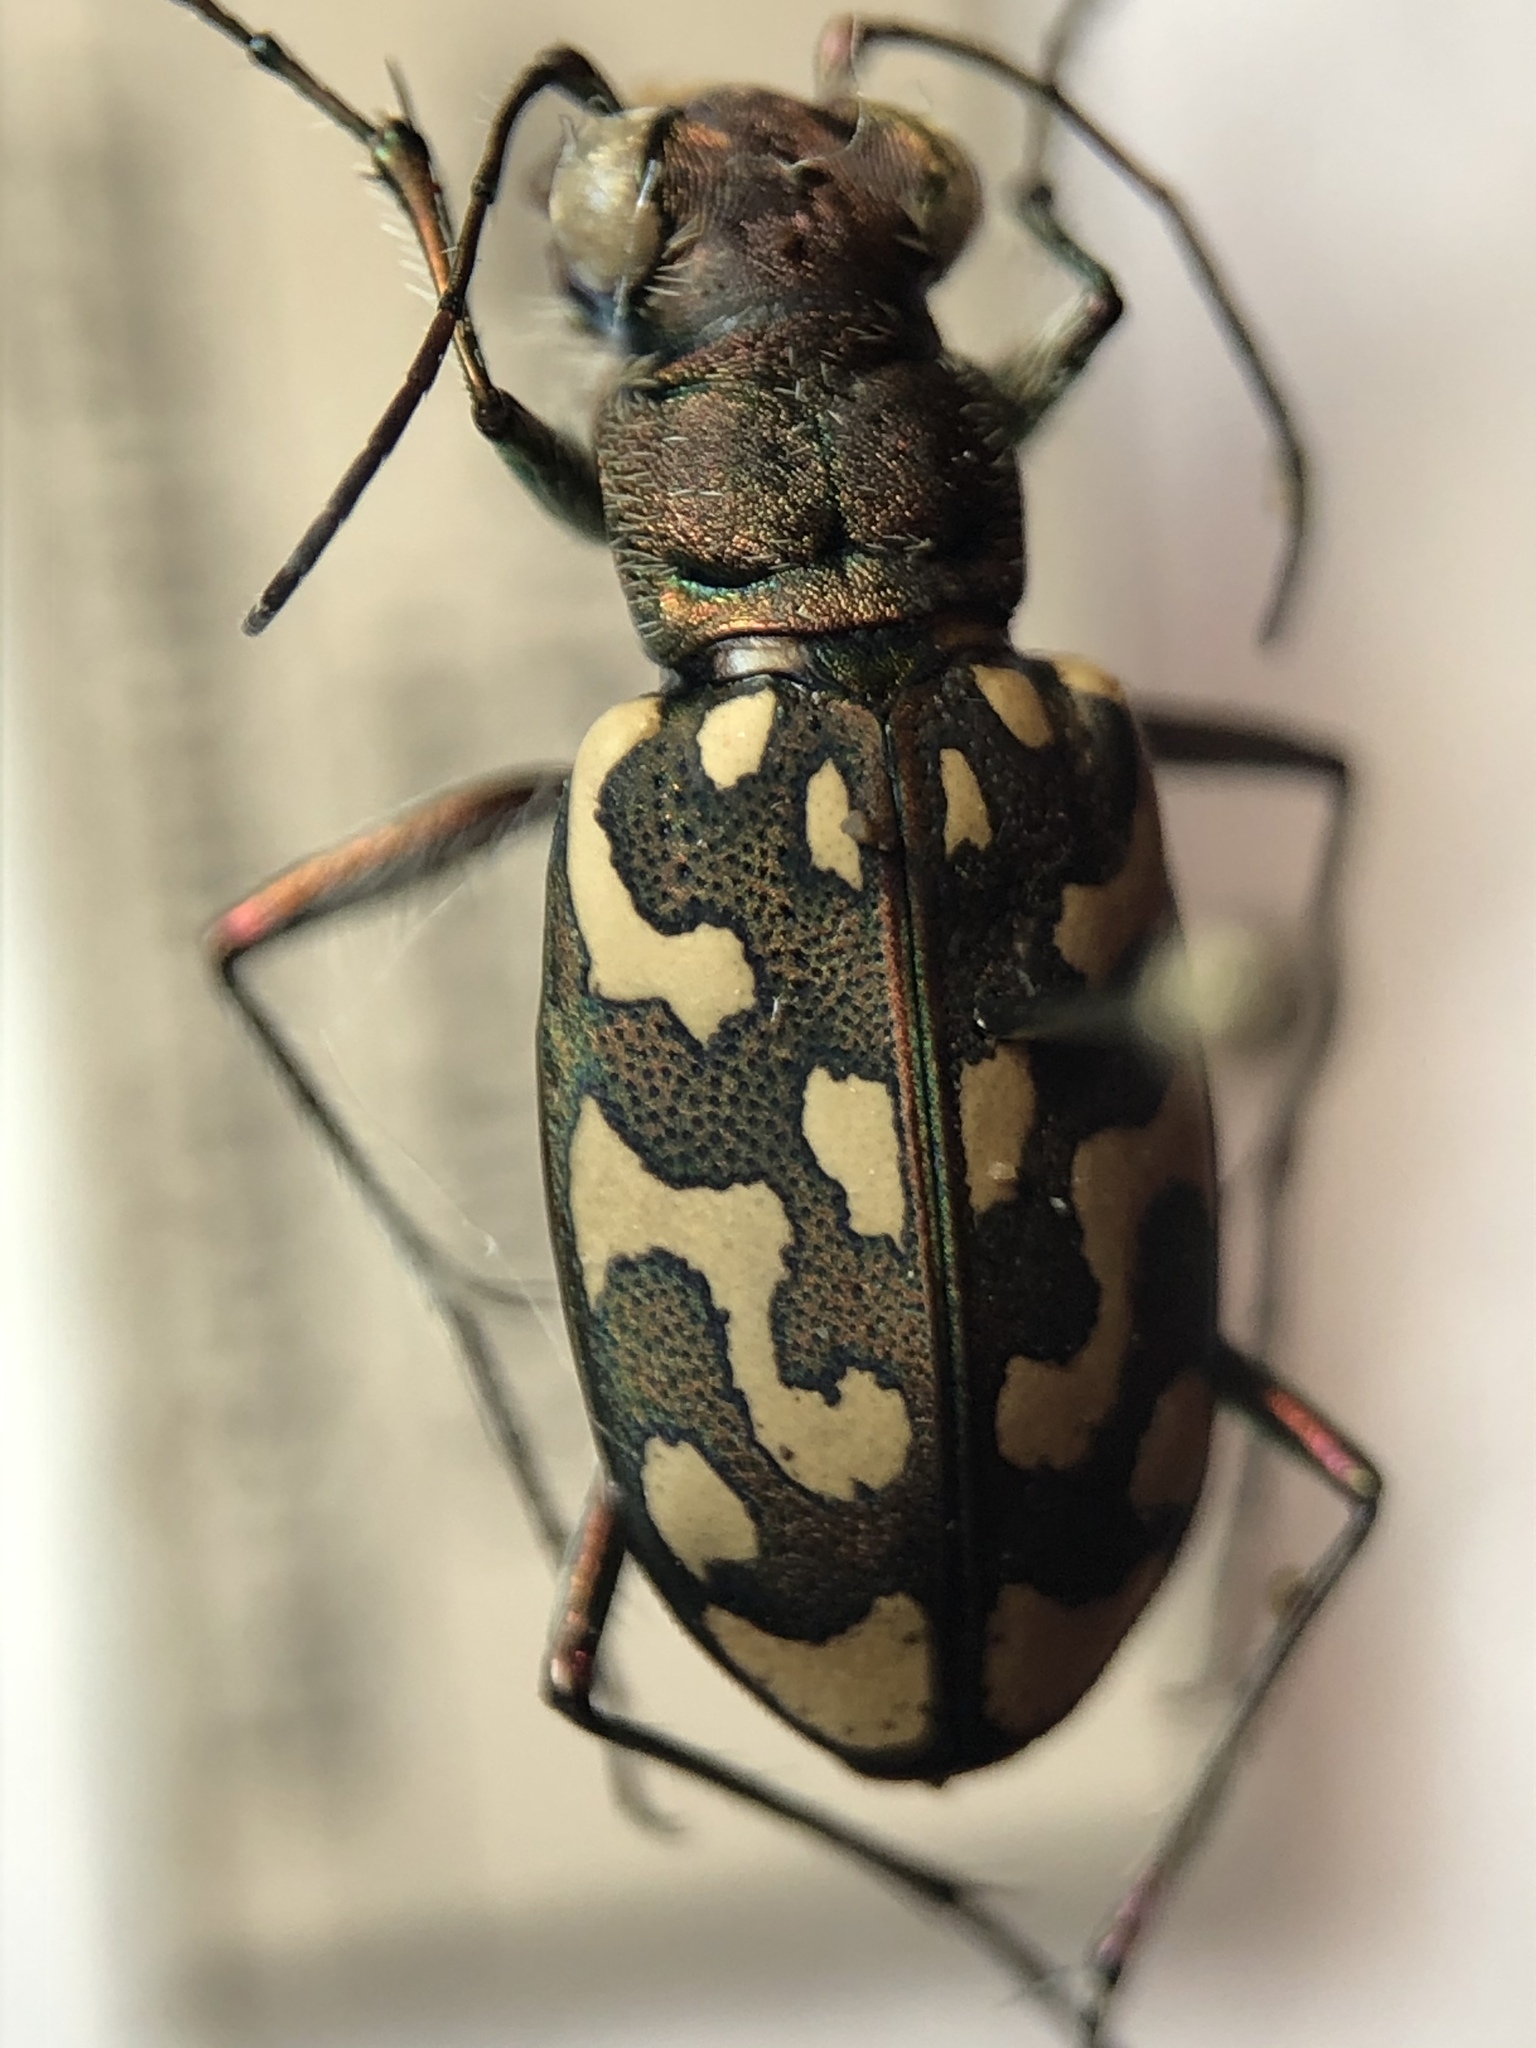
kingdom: Animalia
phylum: Arthropoda
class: Insecta
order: Coleoptera
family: Carabidae
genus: Lophyra
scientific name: Lophyra flexuosa
